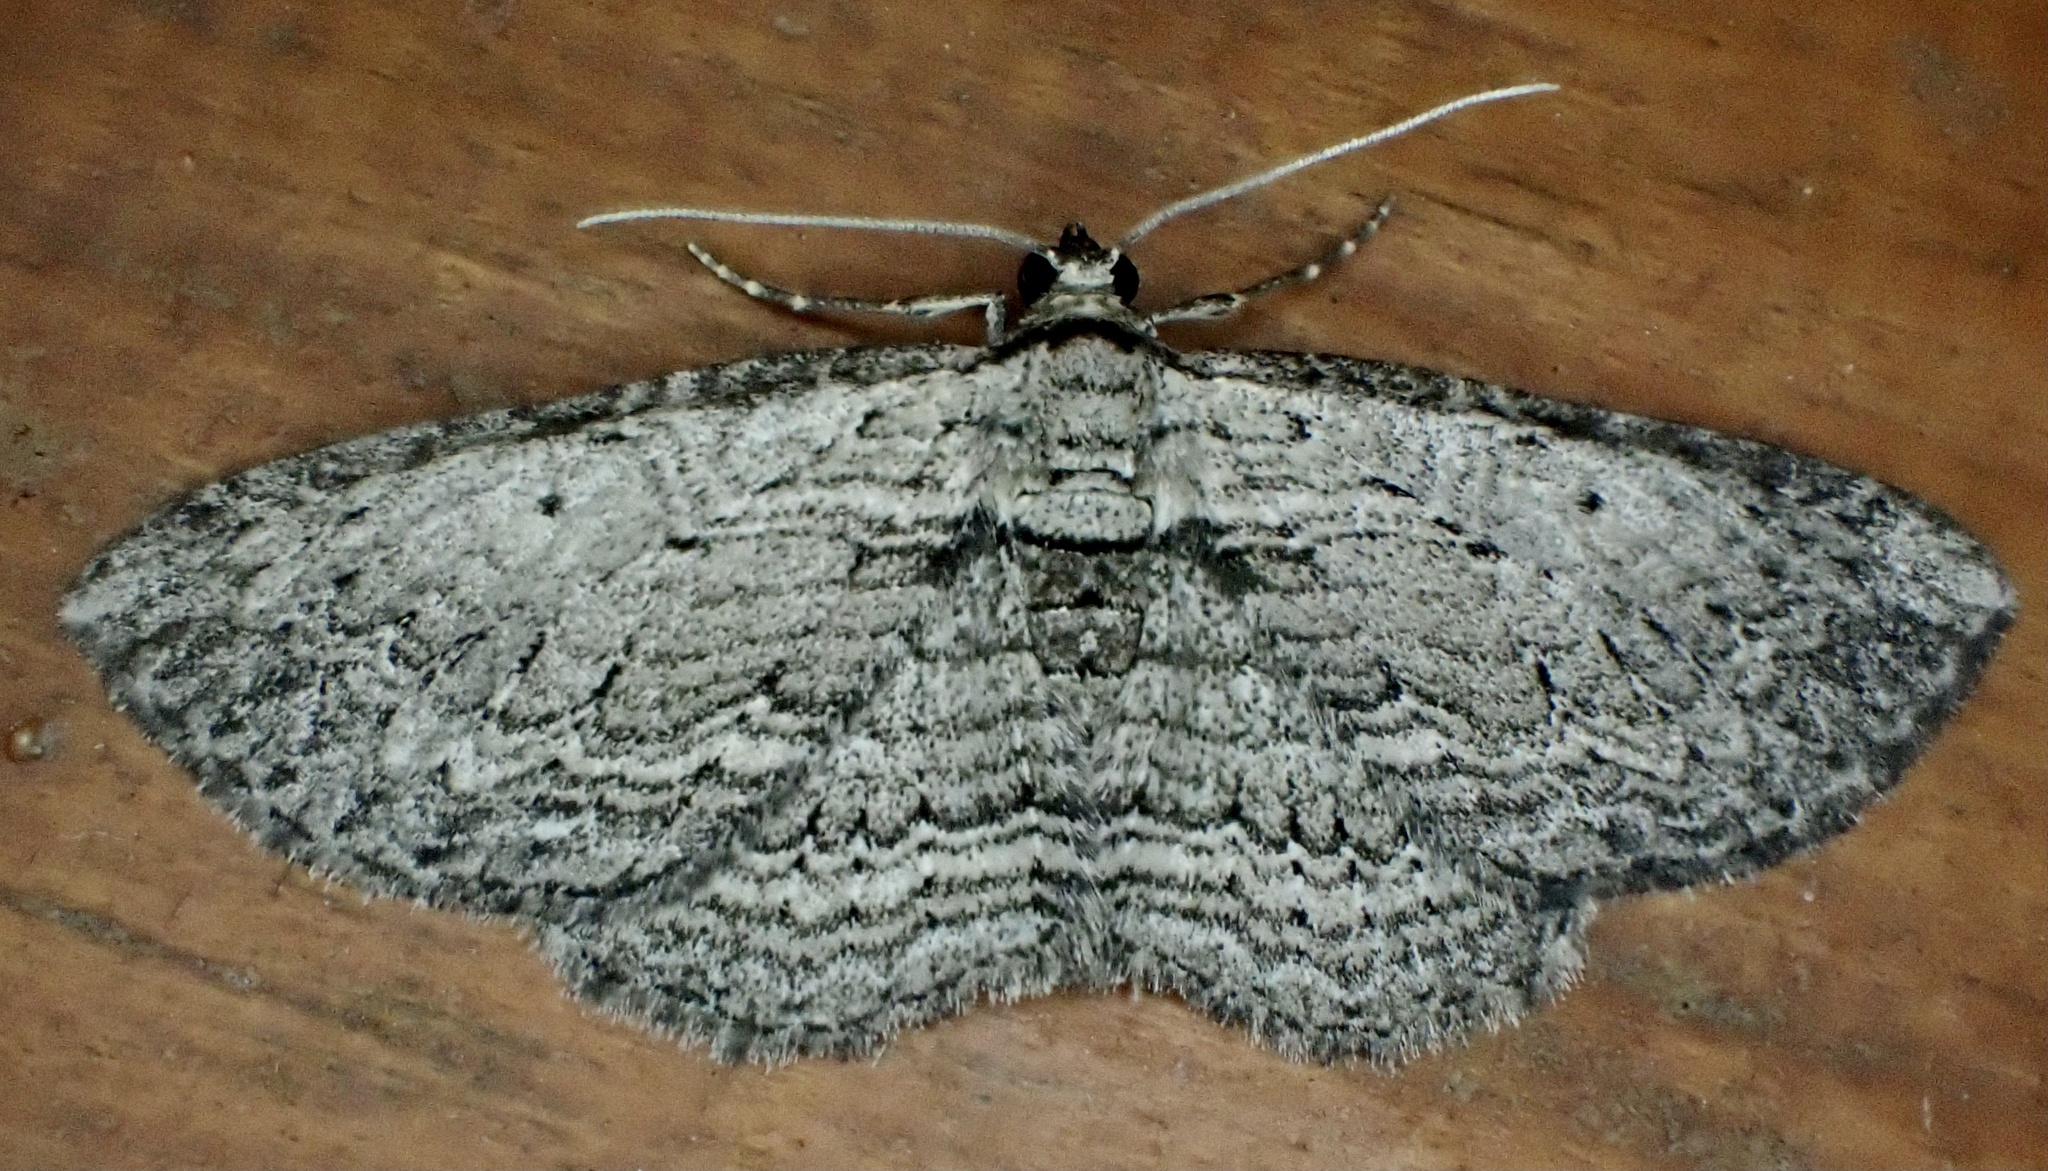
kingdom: Animalia
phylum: Arthropoda
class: Insecta
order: Lepidoptera
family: Geometridae
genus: Horisme
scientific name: Horisme intestinata
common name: Brown bark carpet
